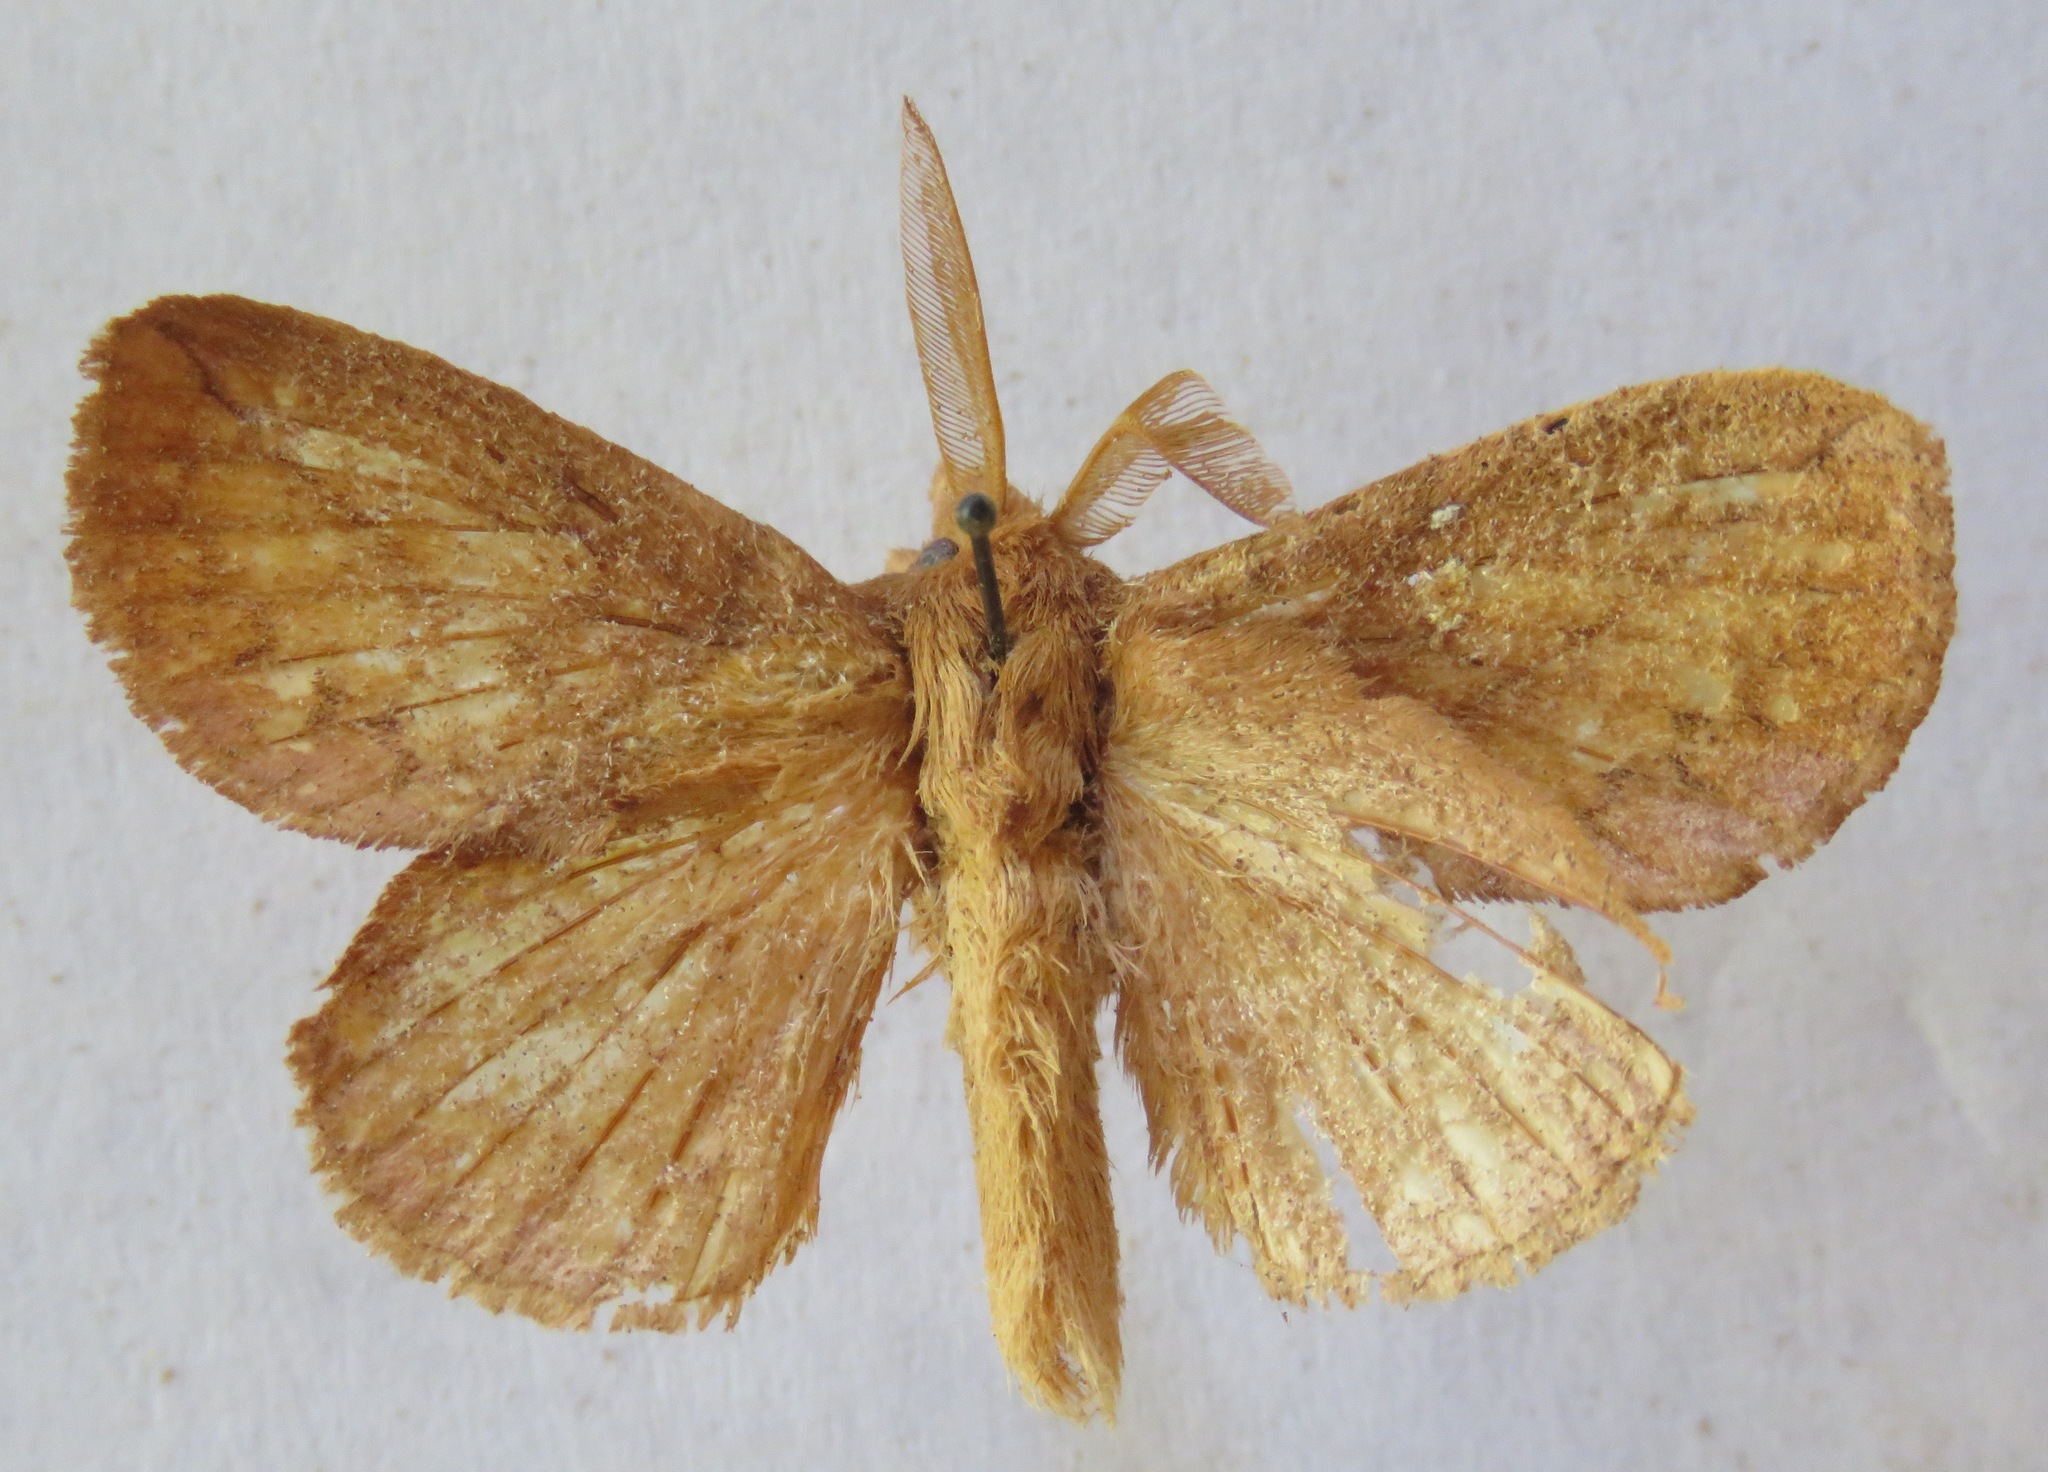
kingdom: Animalia
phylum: Arthropoda
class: Insecta
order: Lepidoptera
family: Lasiocampidae
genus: Euthrix
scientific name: Euthrix potatoria
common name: Drinker
